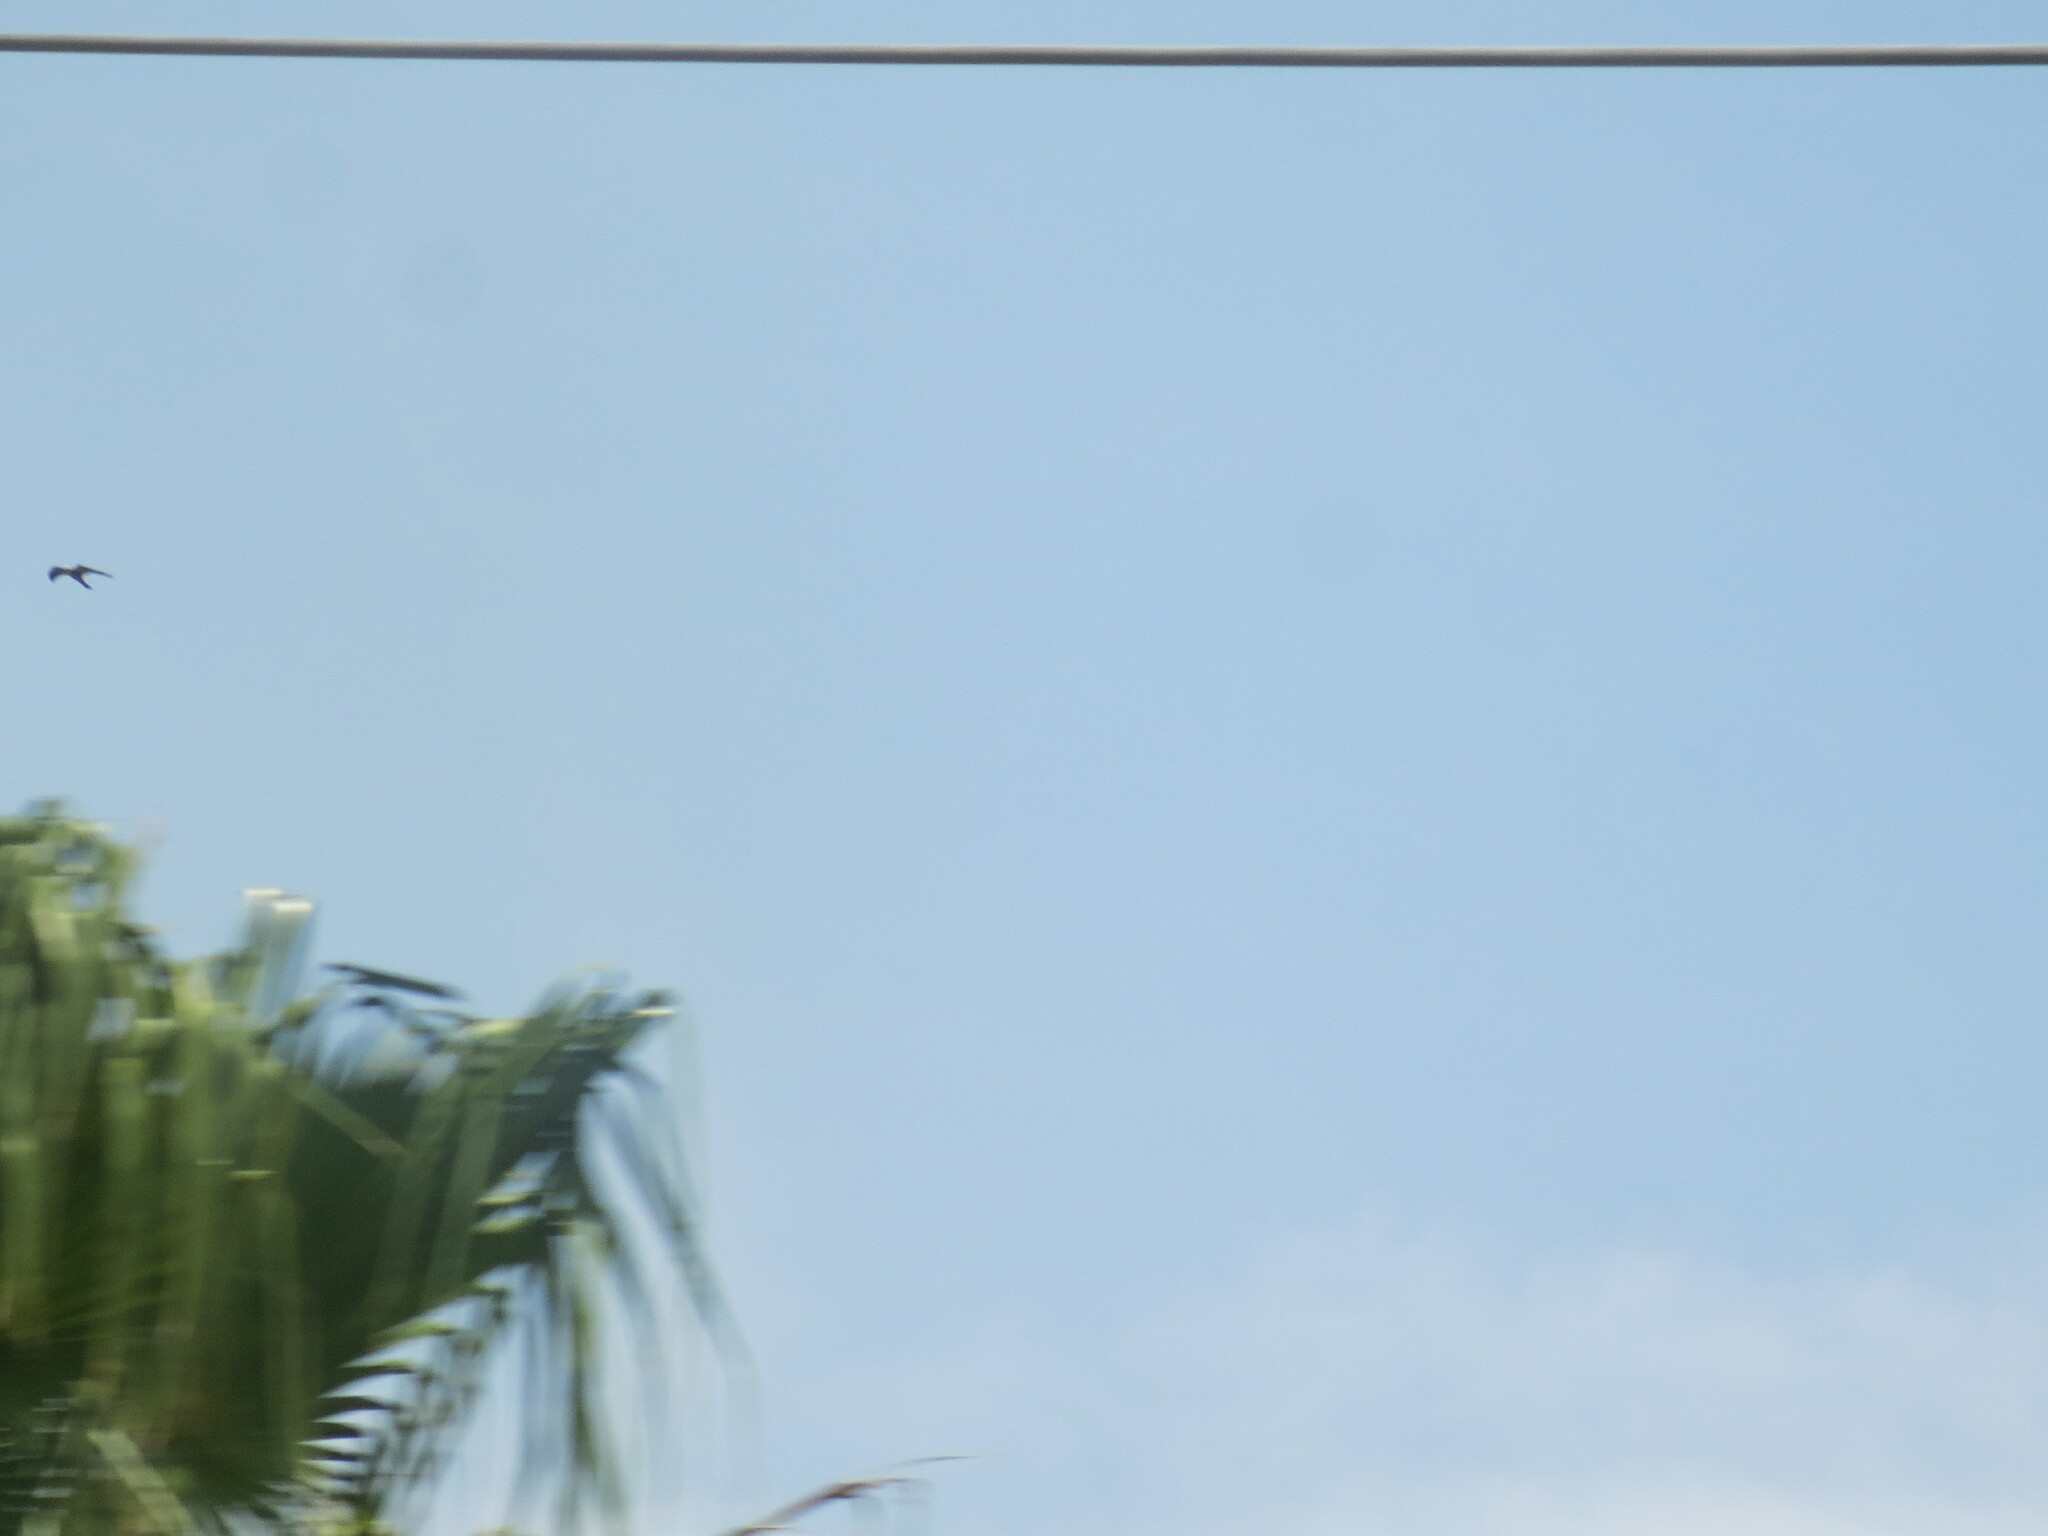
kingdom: Animalia
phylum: Chordata
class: Aves
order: Accipitriformes
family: Accipitridae
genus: Ictinia
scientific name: Ictinia mississippiensis
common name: Mississippi kite
